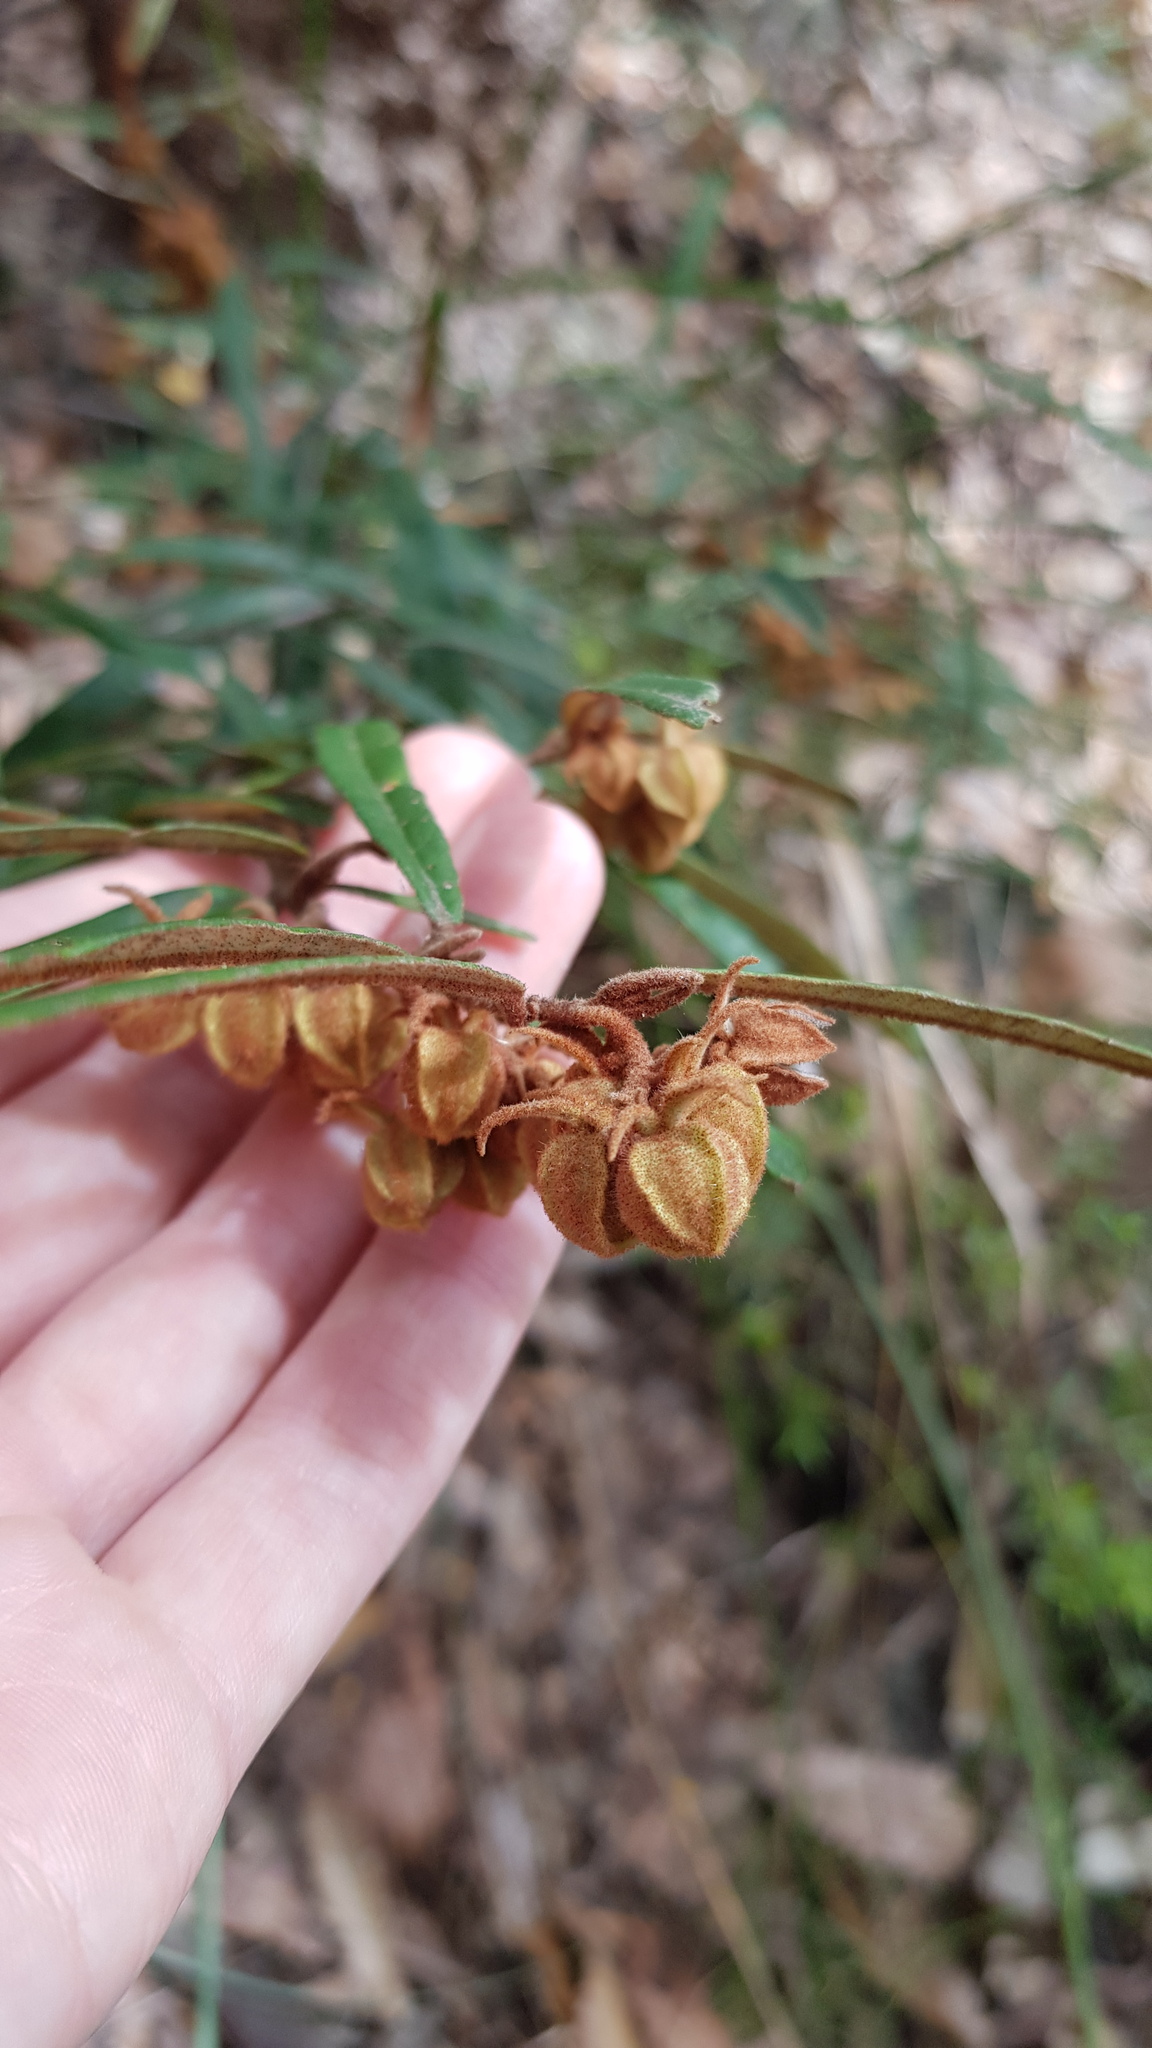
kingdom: Plantae
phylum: Tracheophyta
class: Magnoliopsida
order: Malvales
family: Malvaceae
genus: Lasiopetalum
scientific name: Lasiopetalum ferrugineum
